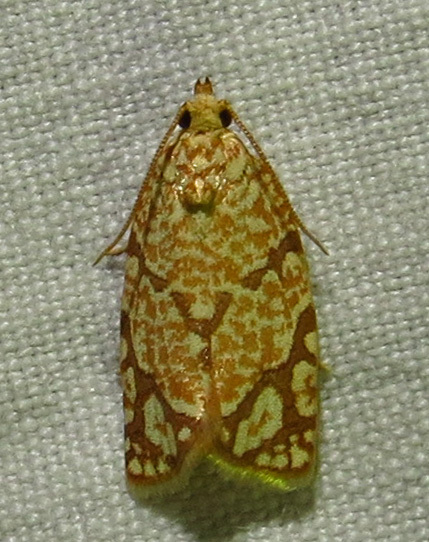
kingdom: Animalia
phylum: Arthropoda
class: Insecta
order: Lepidoptera
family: Tortricidae
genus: Argyrotaenia
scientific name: Argyrotaenia quercifoliana
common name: Yellow-winged oak leafroller moth
